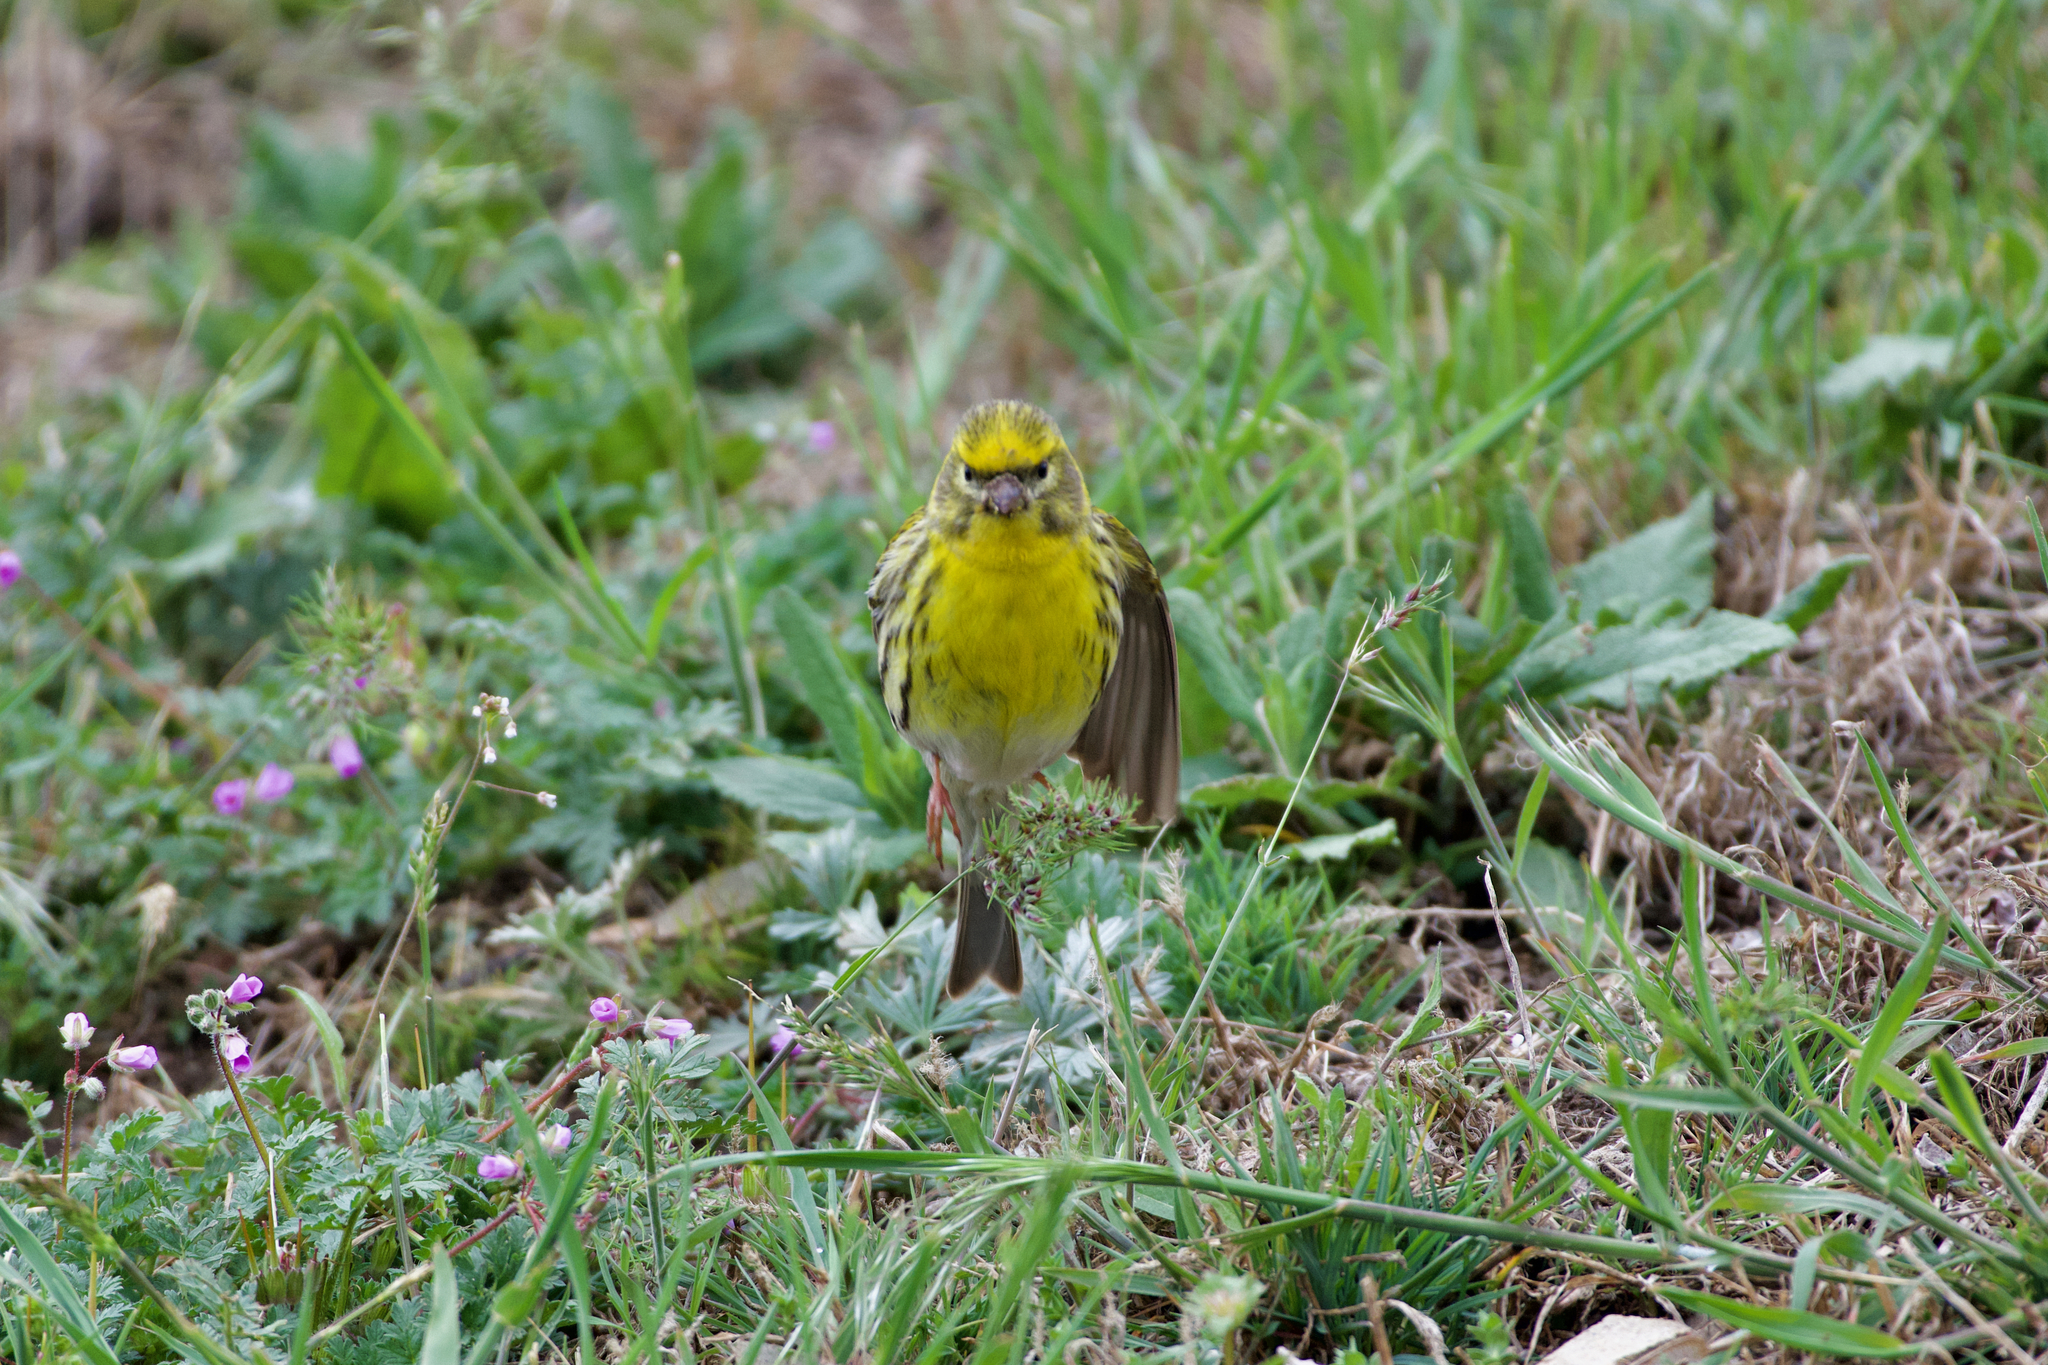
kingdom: Animalia
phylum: Chordata
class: Aves
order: Passeriformes
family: Fringillidae
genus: Serinus
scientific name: Serinus serinus
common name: European serin
